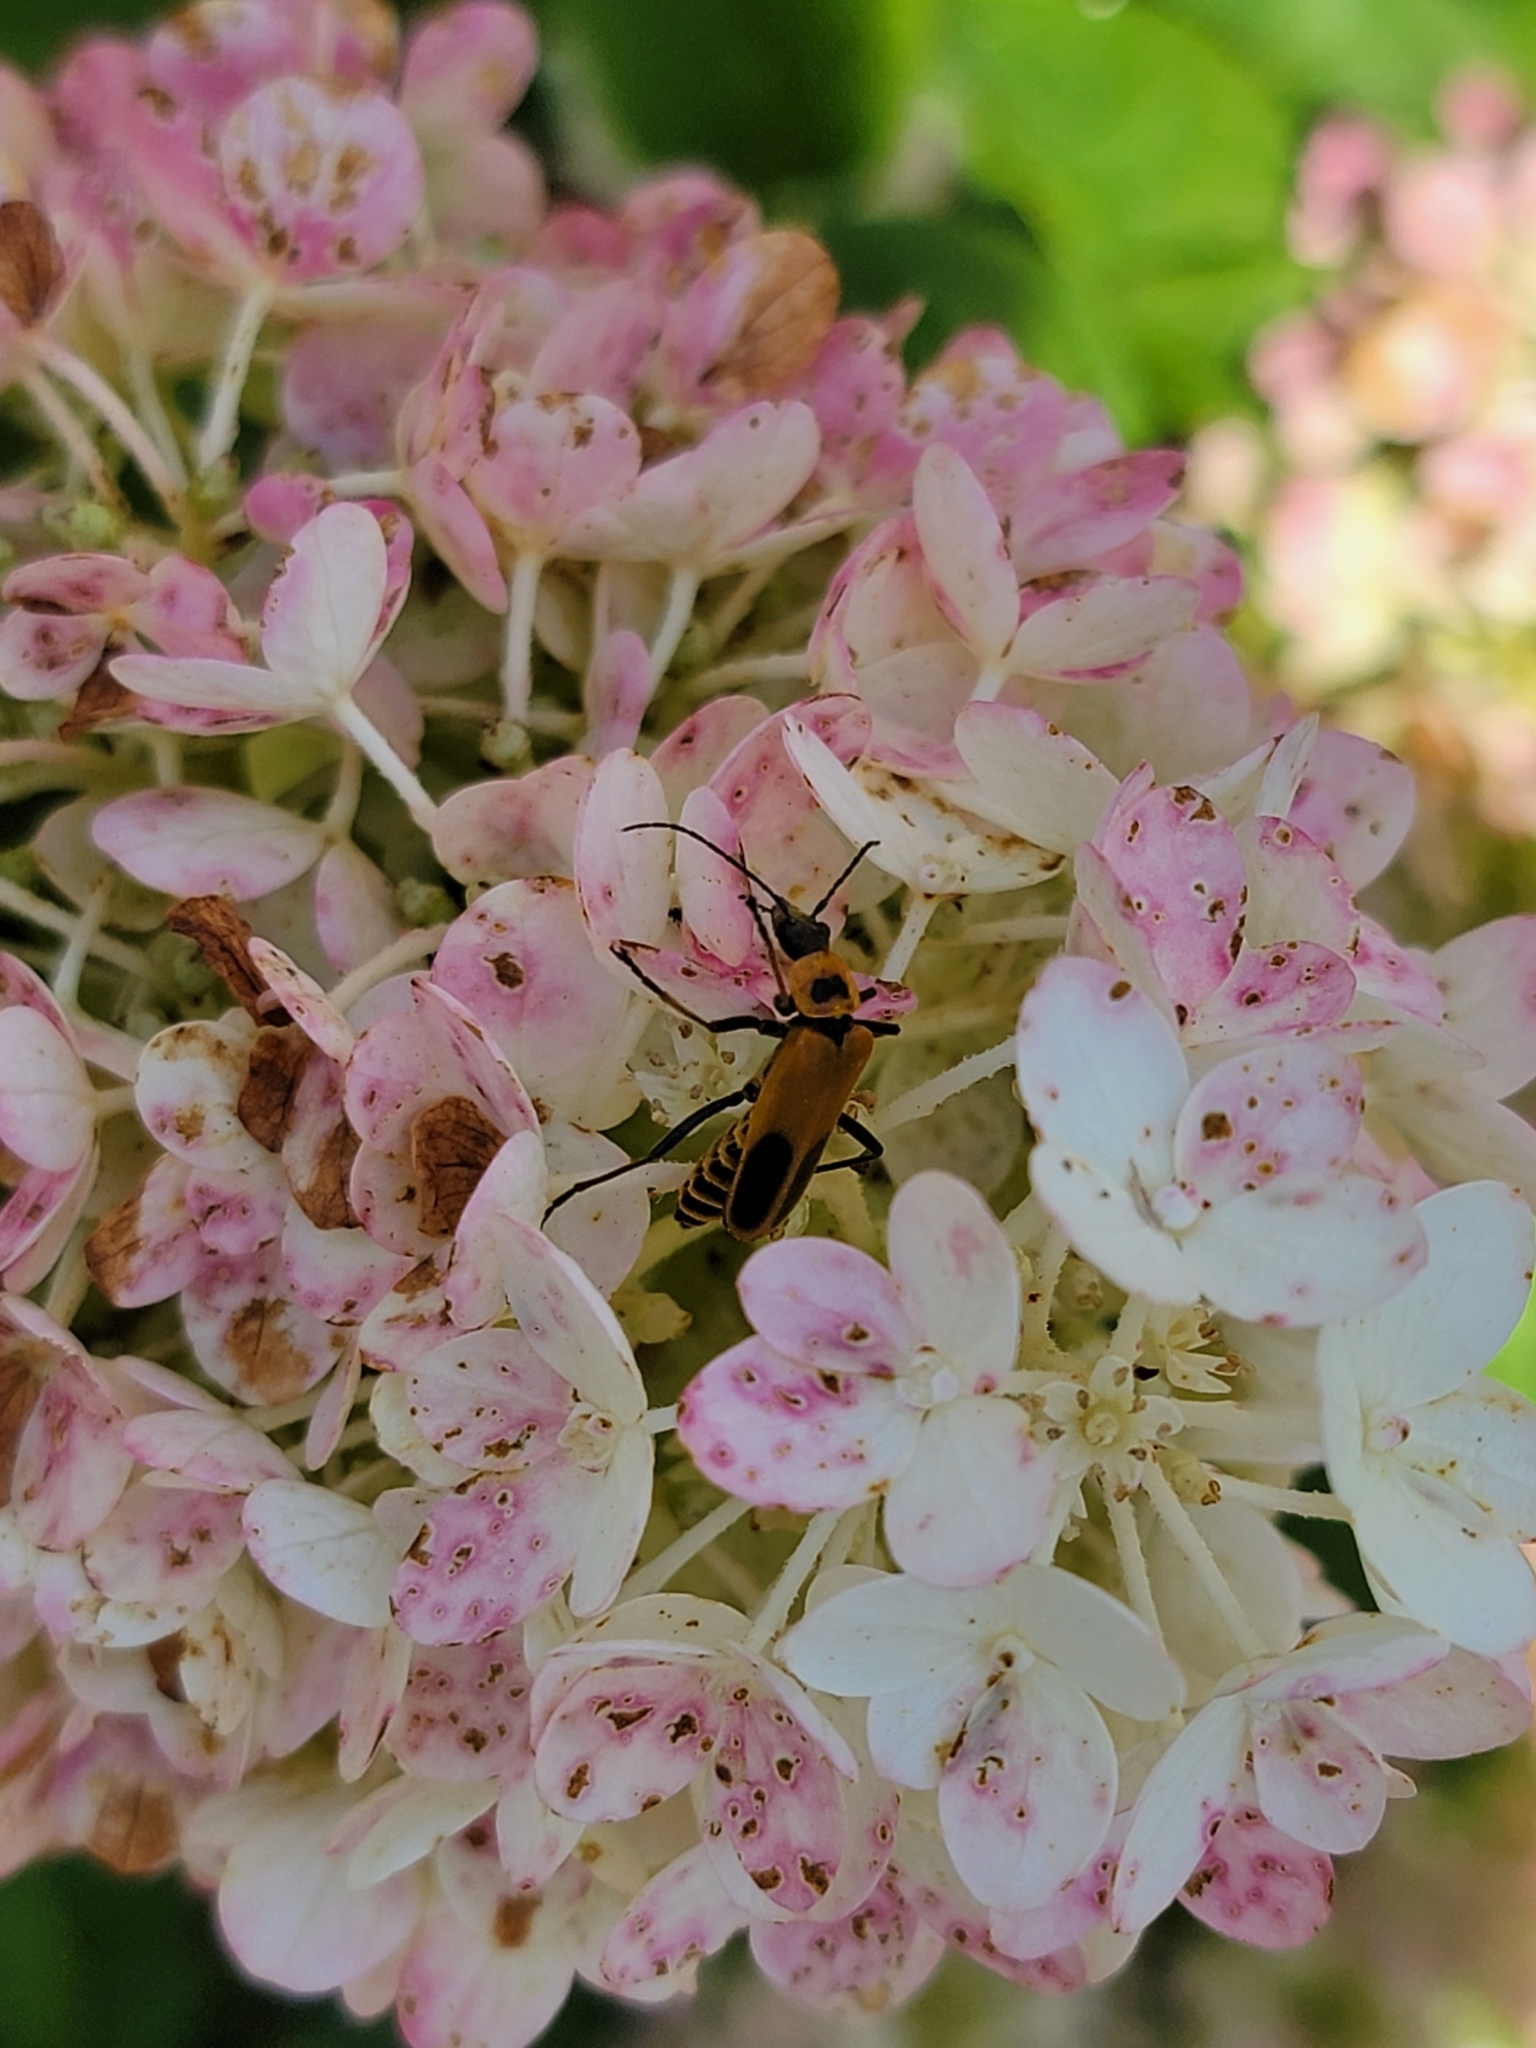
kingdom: Animalia
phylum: Arthropoda
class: Insecta
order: Coleoptera
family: Cantharidae
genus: Chauliognathus
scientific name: Chauliognathus pensylvanicus
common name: Goldenrod soldier beetle
